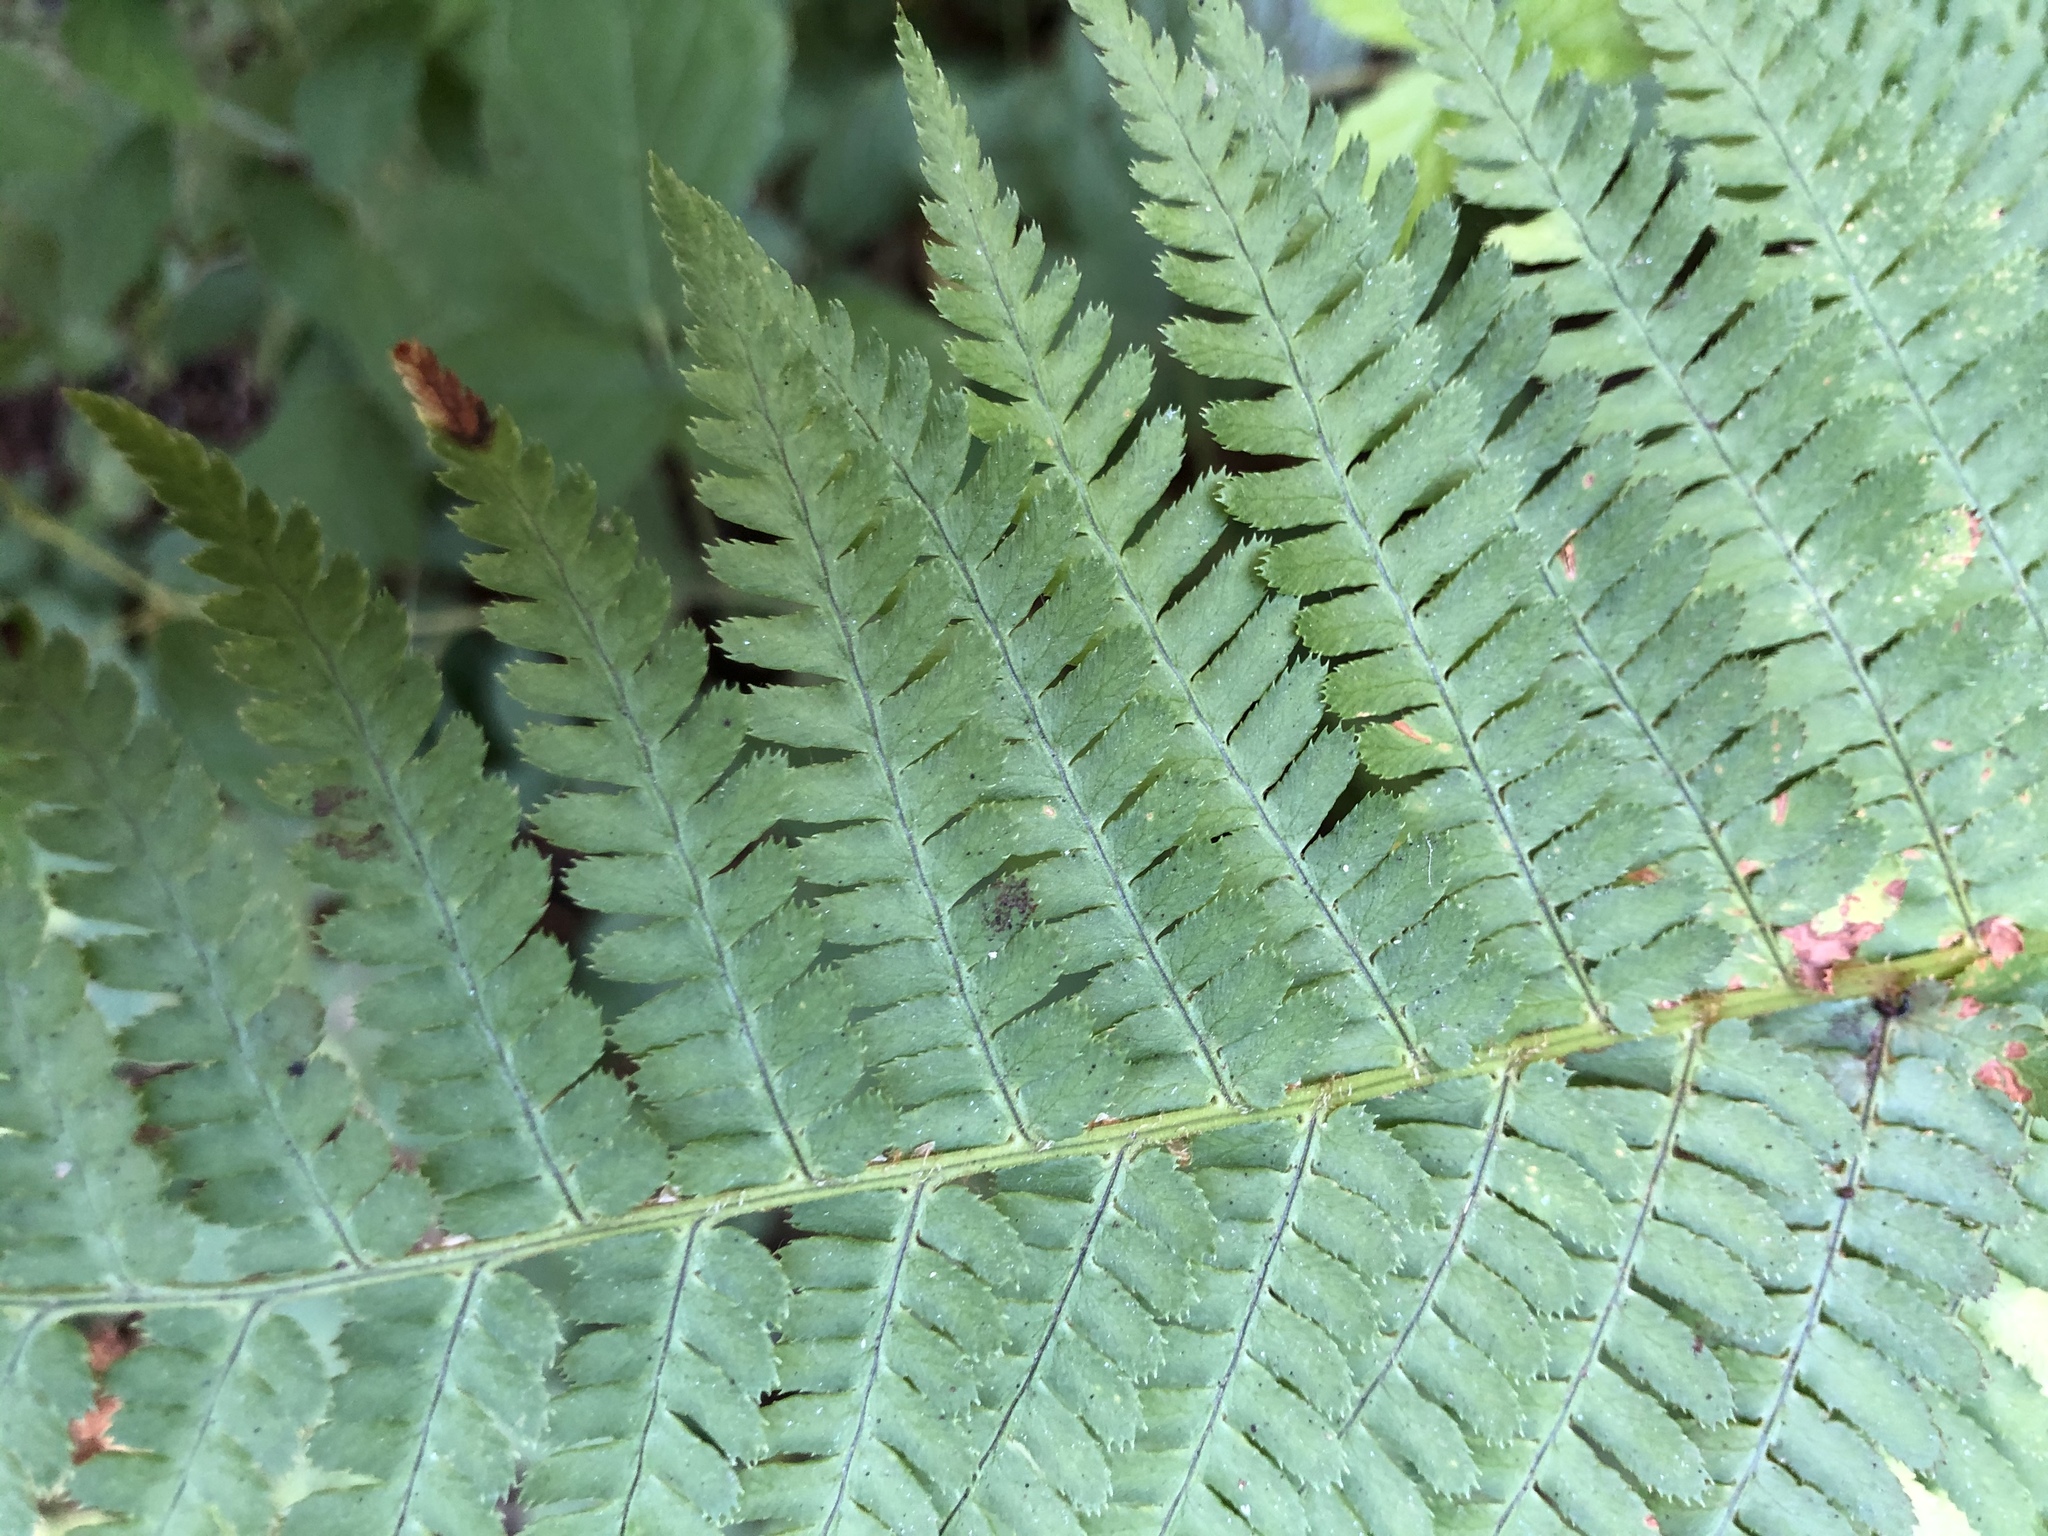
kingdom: Plantae
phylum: Tracheophyta
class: Polypodiopsida
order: Polypodiales
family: Dryopteridaceae
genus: Dryopteris
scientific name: Dryopteris arguta
